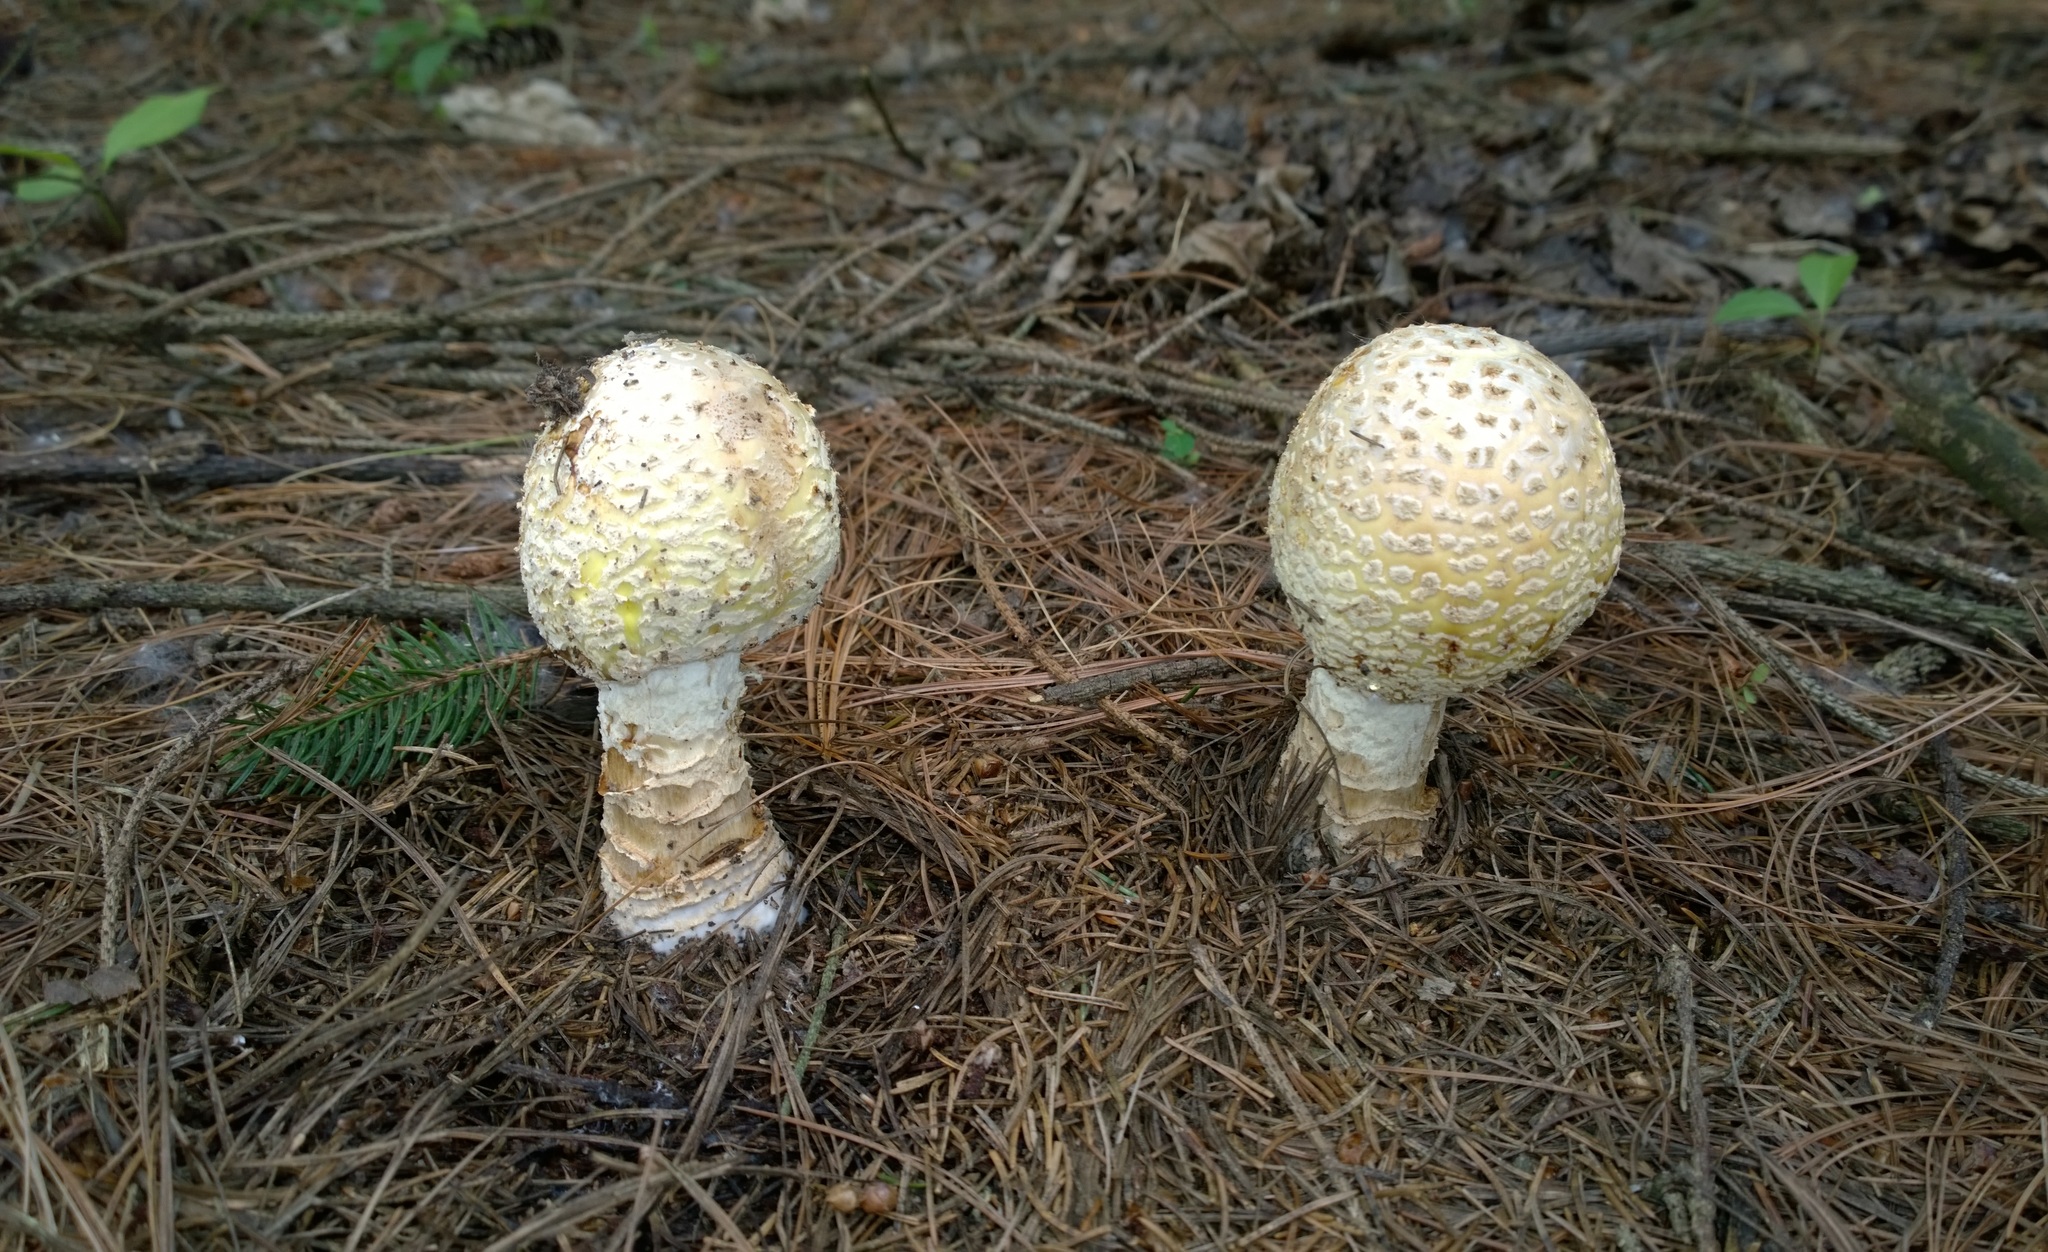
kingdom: Fungi
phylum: Basidiomycota
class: Agaricomycetes
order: Agaricales
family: Amanitaceae
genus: Amanita
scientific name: Amanita muscaria
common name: Fly agaric
